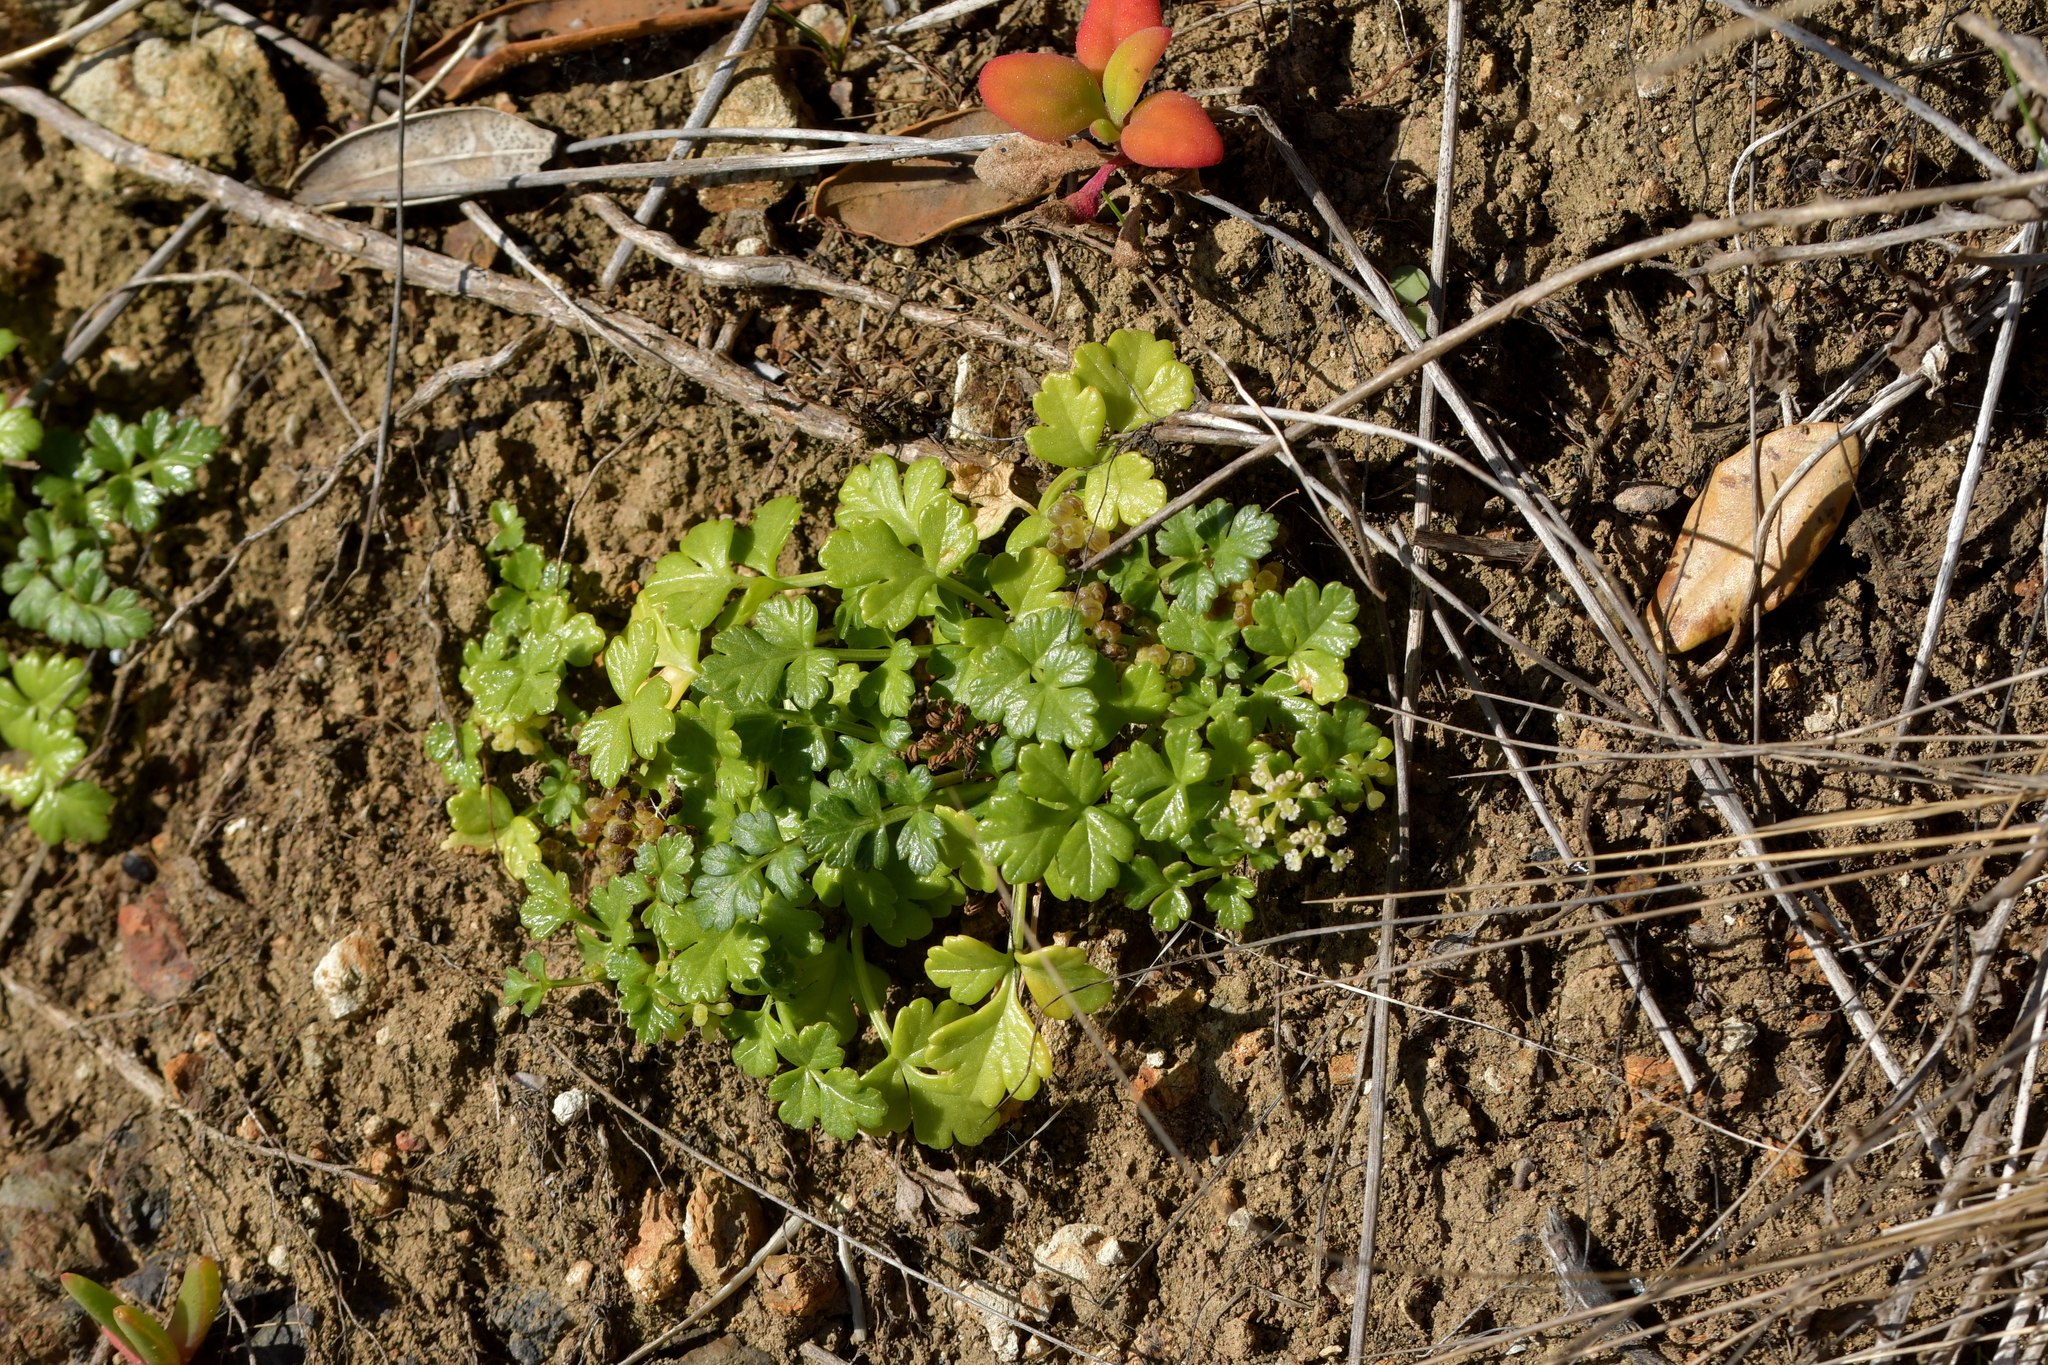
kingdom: Plantae
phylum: Tracheophyta
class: Magnoliopsida
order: Apiales
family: Apiaceae
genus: Apium
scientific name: Apium prostratum
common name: Prostrate marshwort
